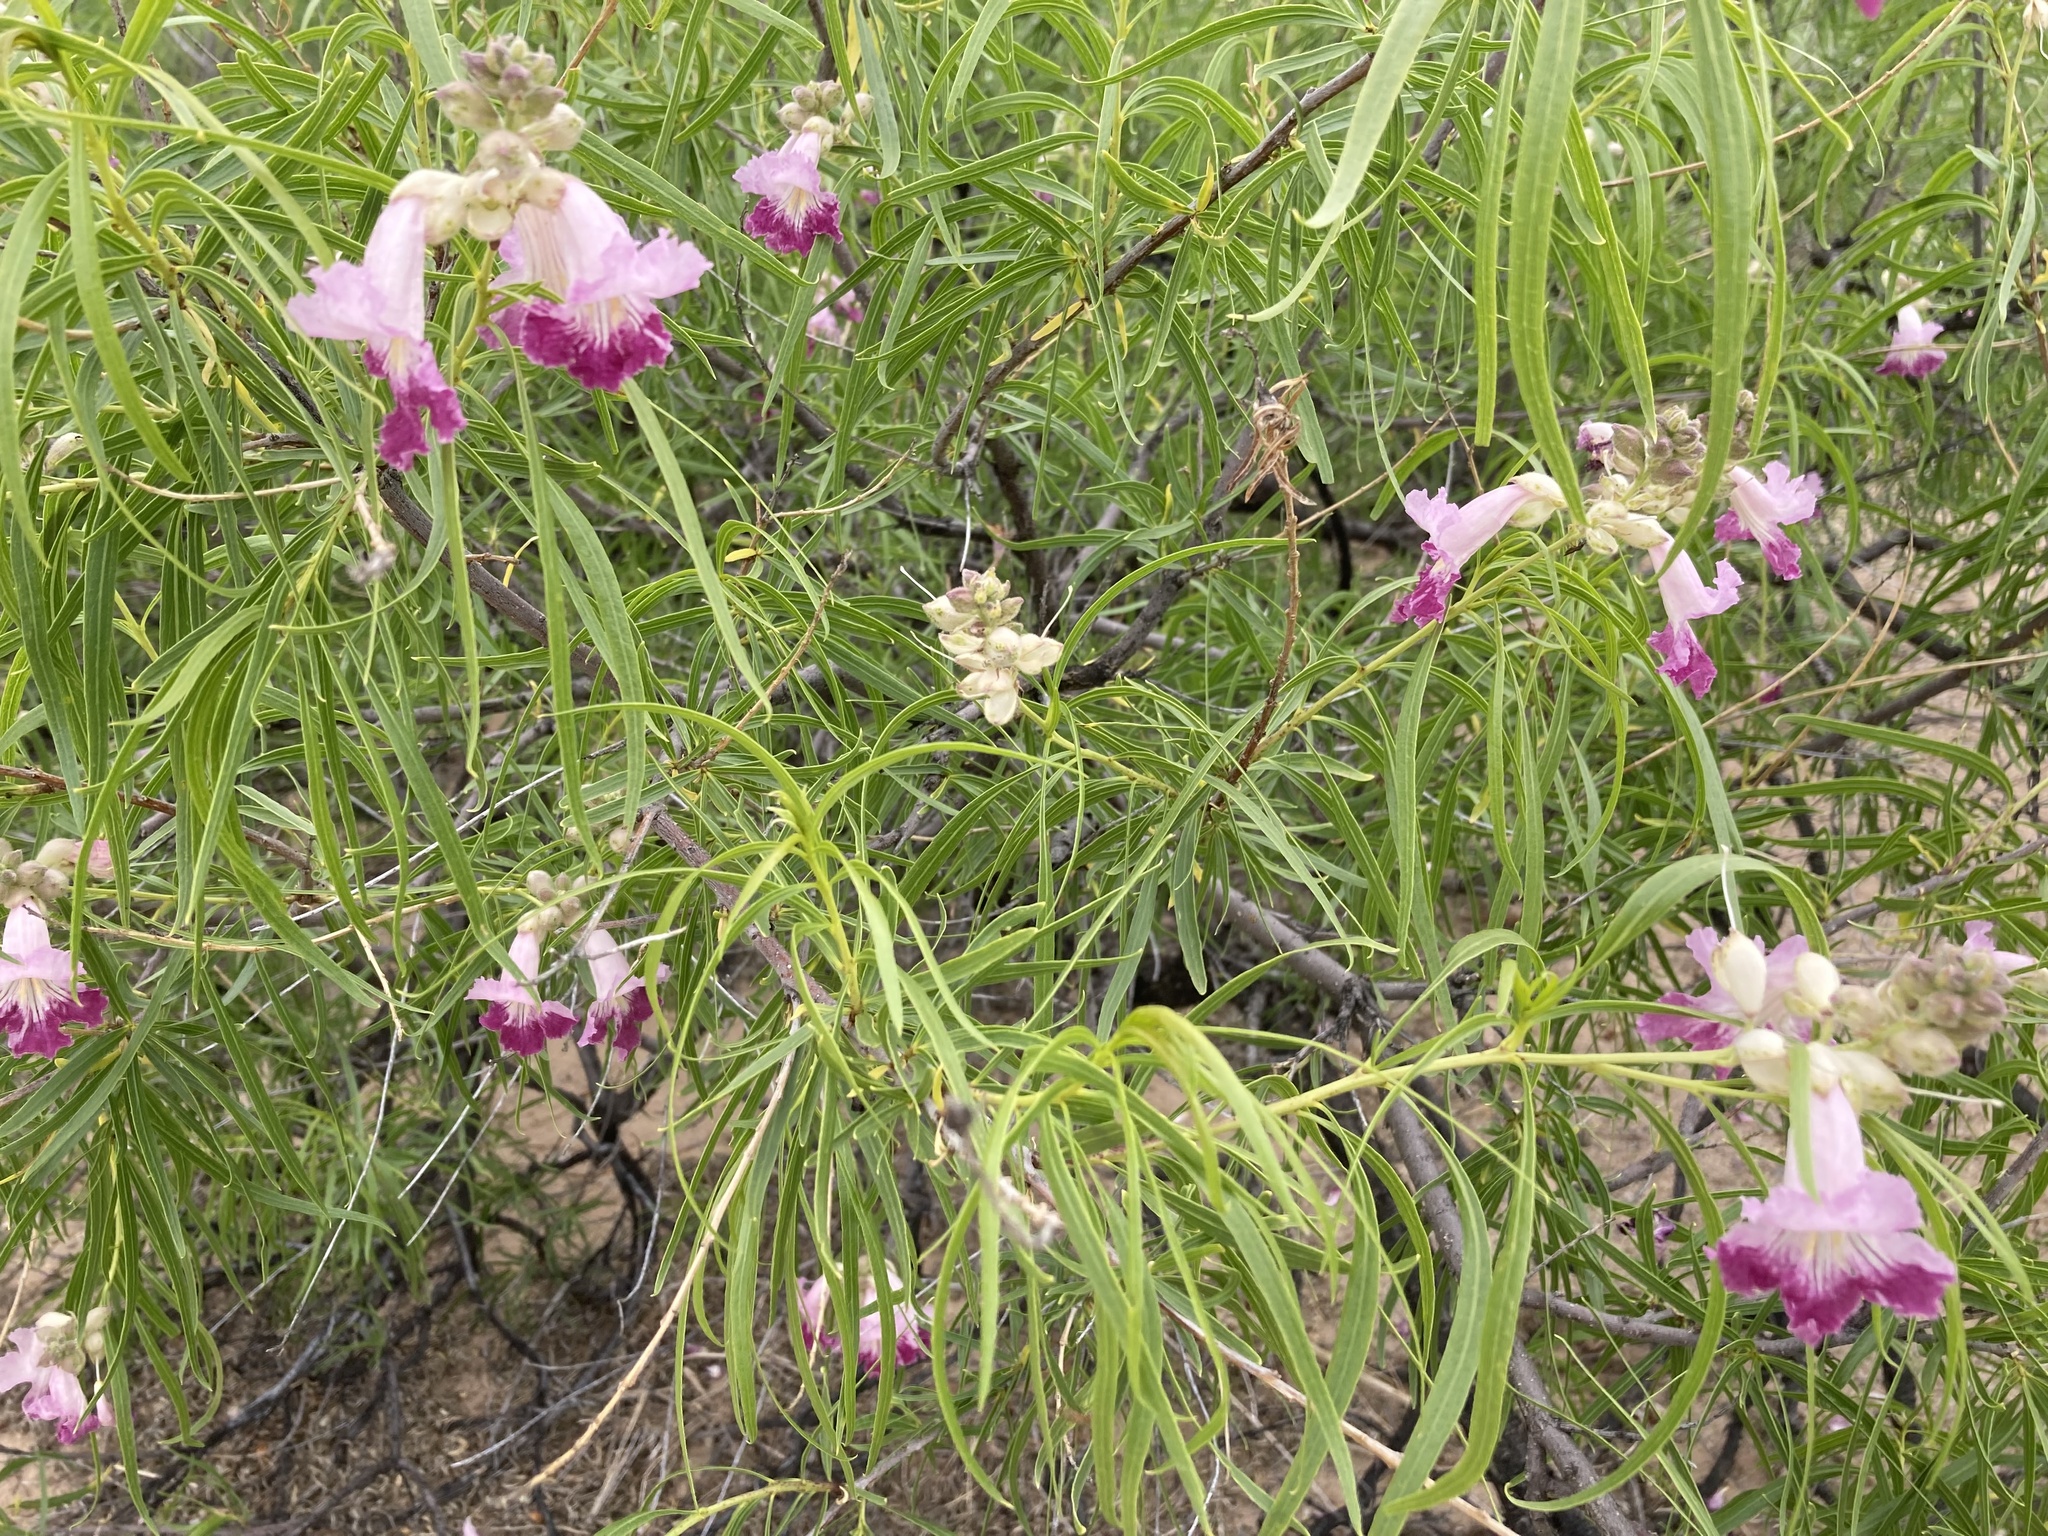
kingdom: Plantae
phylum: Tracheophyta
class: Magnoliopsida
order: Lamiales
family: Bignoniaceae
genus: Chilopsis
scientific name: Chilopsis linearis
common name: Desert-willow
